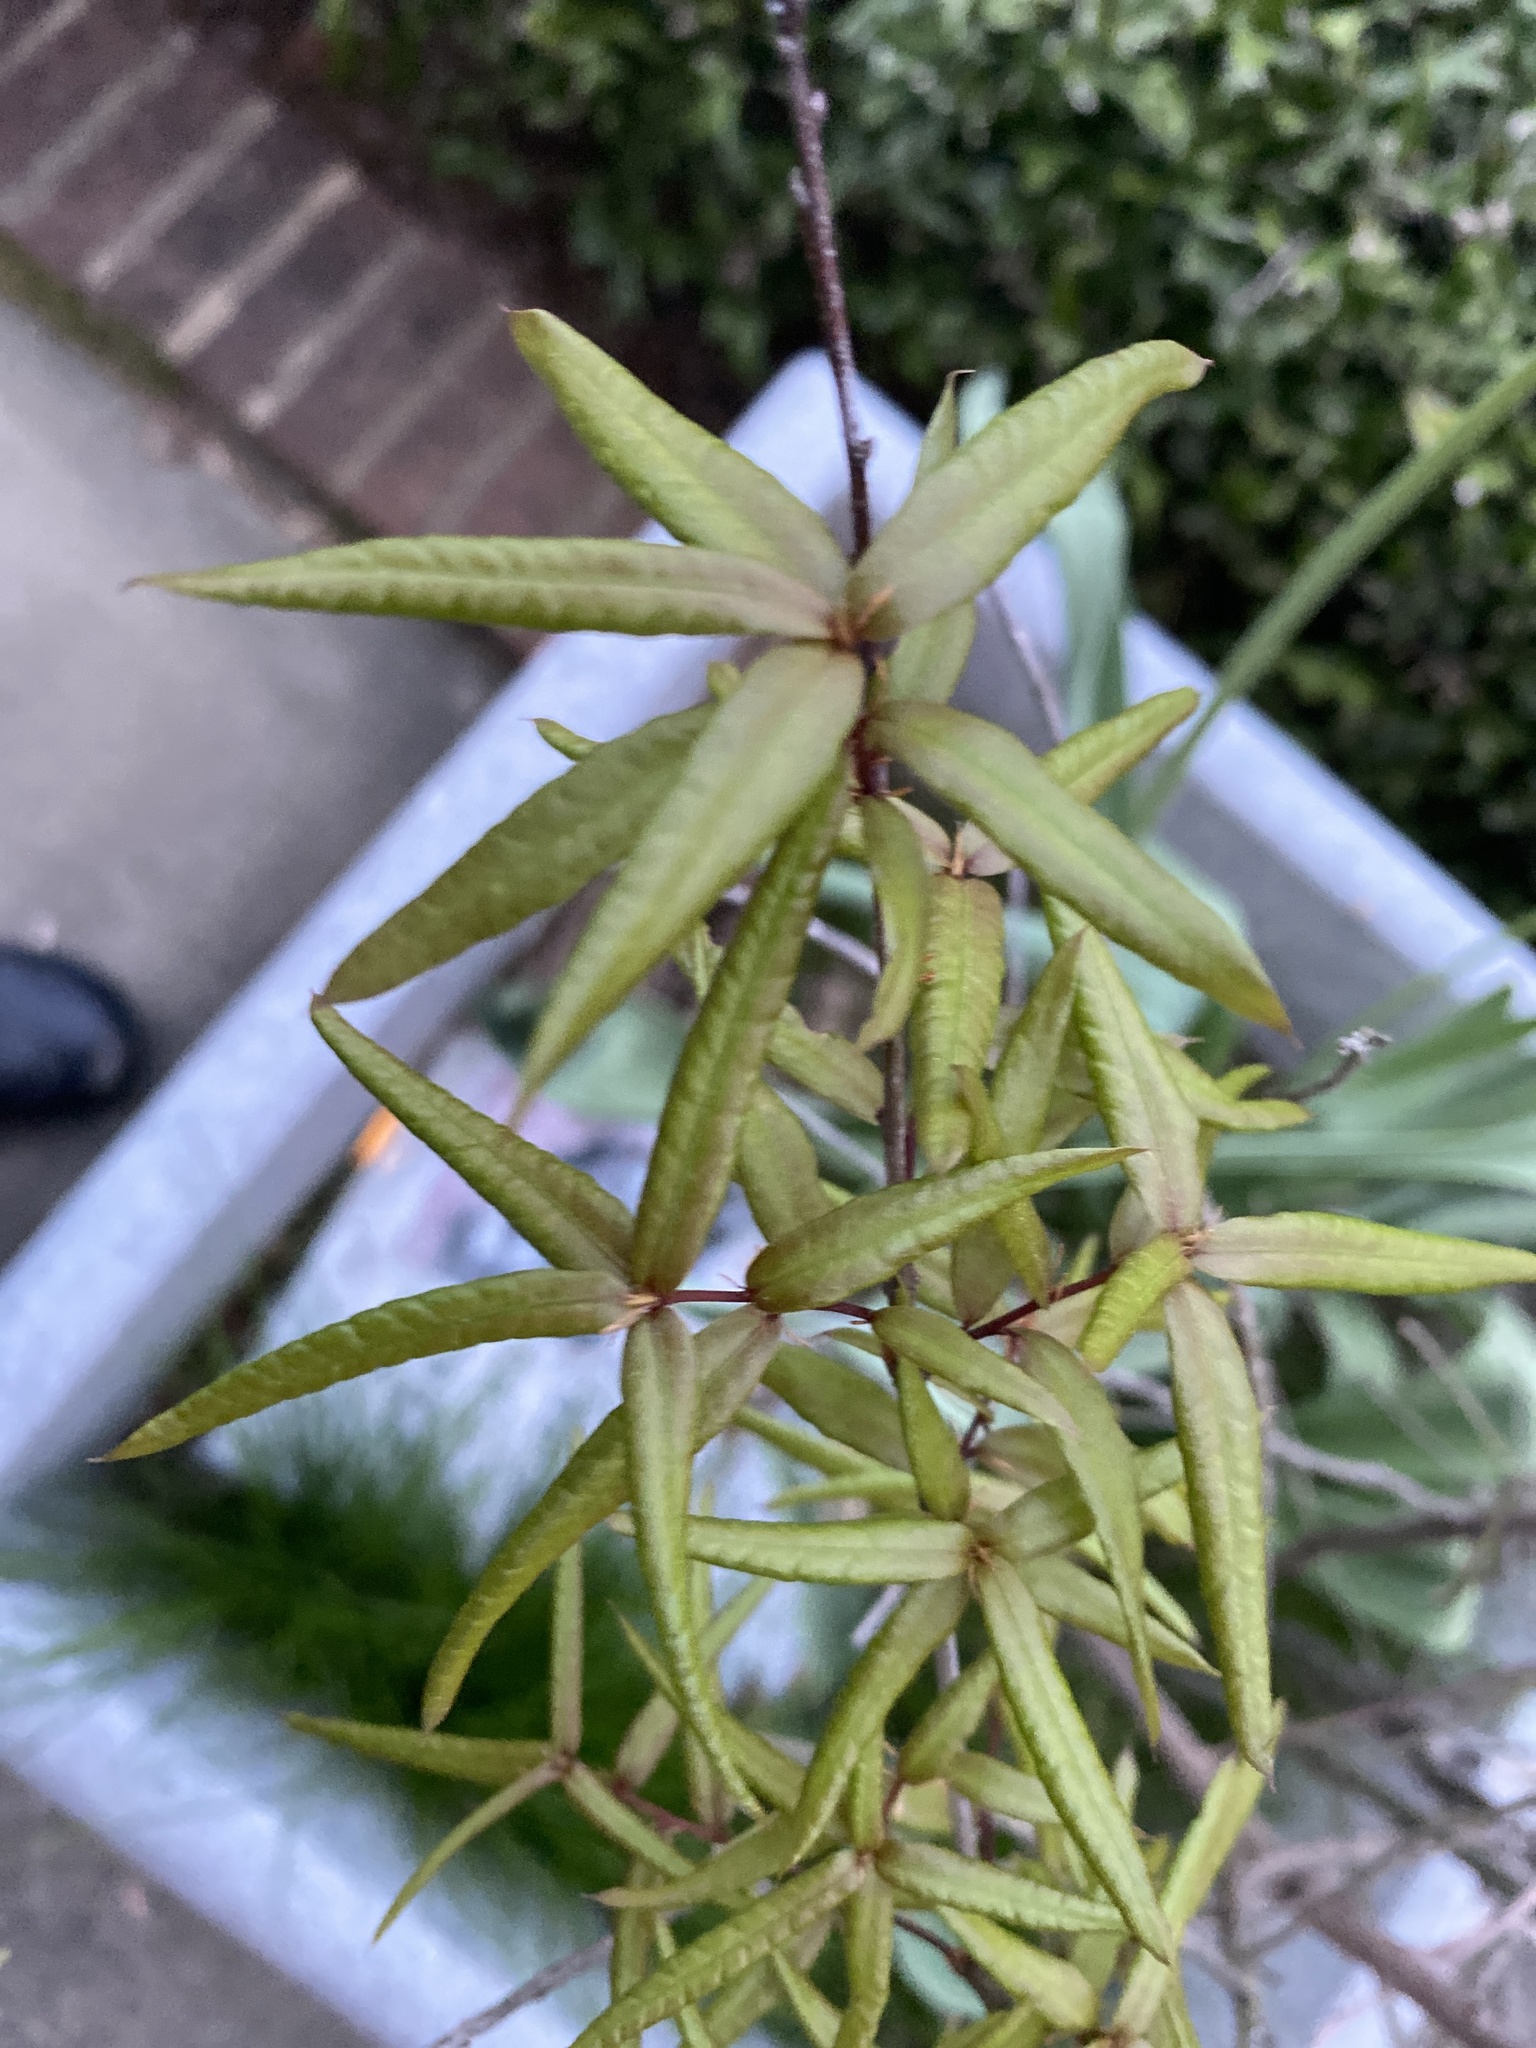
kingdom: Plantae
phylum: Tracheophyta
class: Magnoliopsida
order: Fagales
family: Fagaceae
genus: Quercus
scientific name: Quercus phellos
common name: Willow oak
